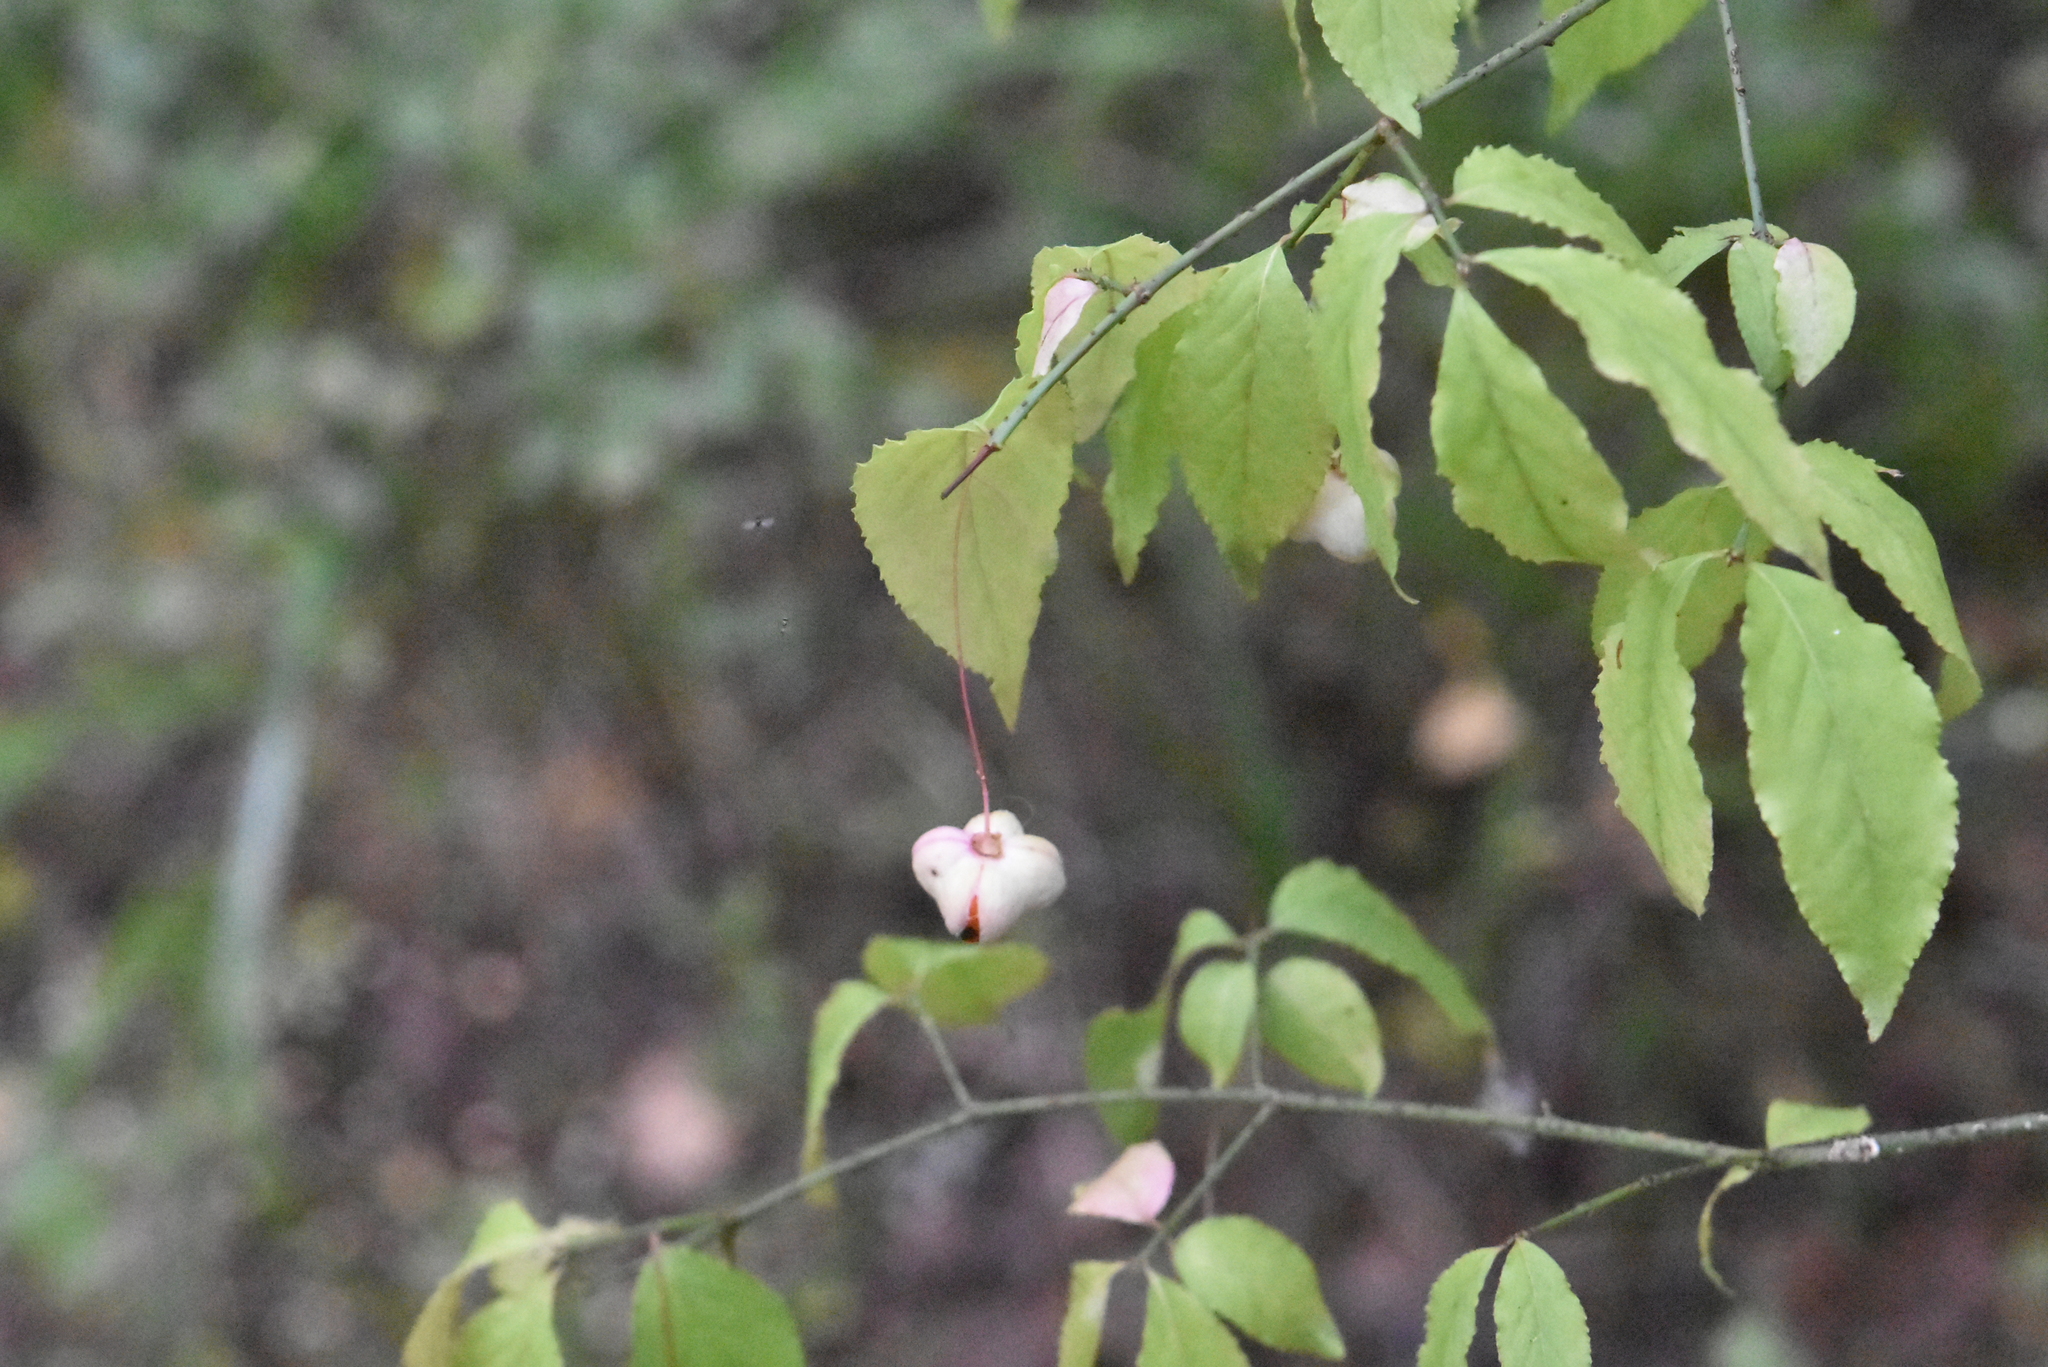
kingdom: Plantae
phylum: Tracheophyta
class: Magnoliopsida
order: Celastrales
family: Celastraceae
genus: Euonymus
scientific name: Euonymus verrucosus
